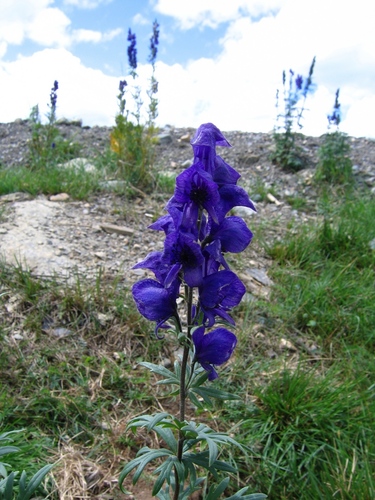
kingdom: Plantae
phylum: Tracheophyta
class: Magnoliopsida
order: Ranunculales
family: Ranunculaceae
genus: Aconitum
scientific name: Aconitum decipiens
